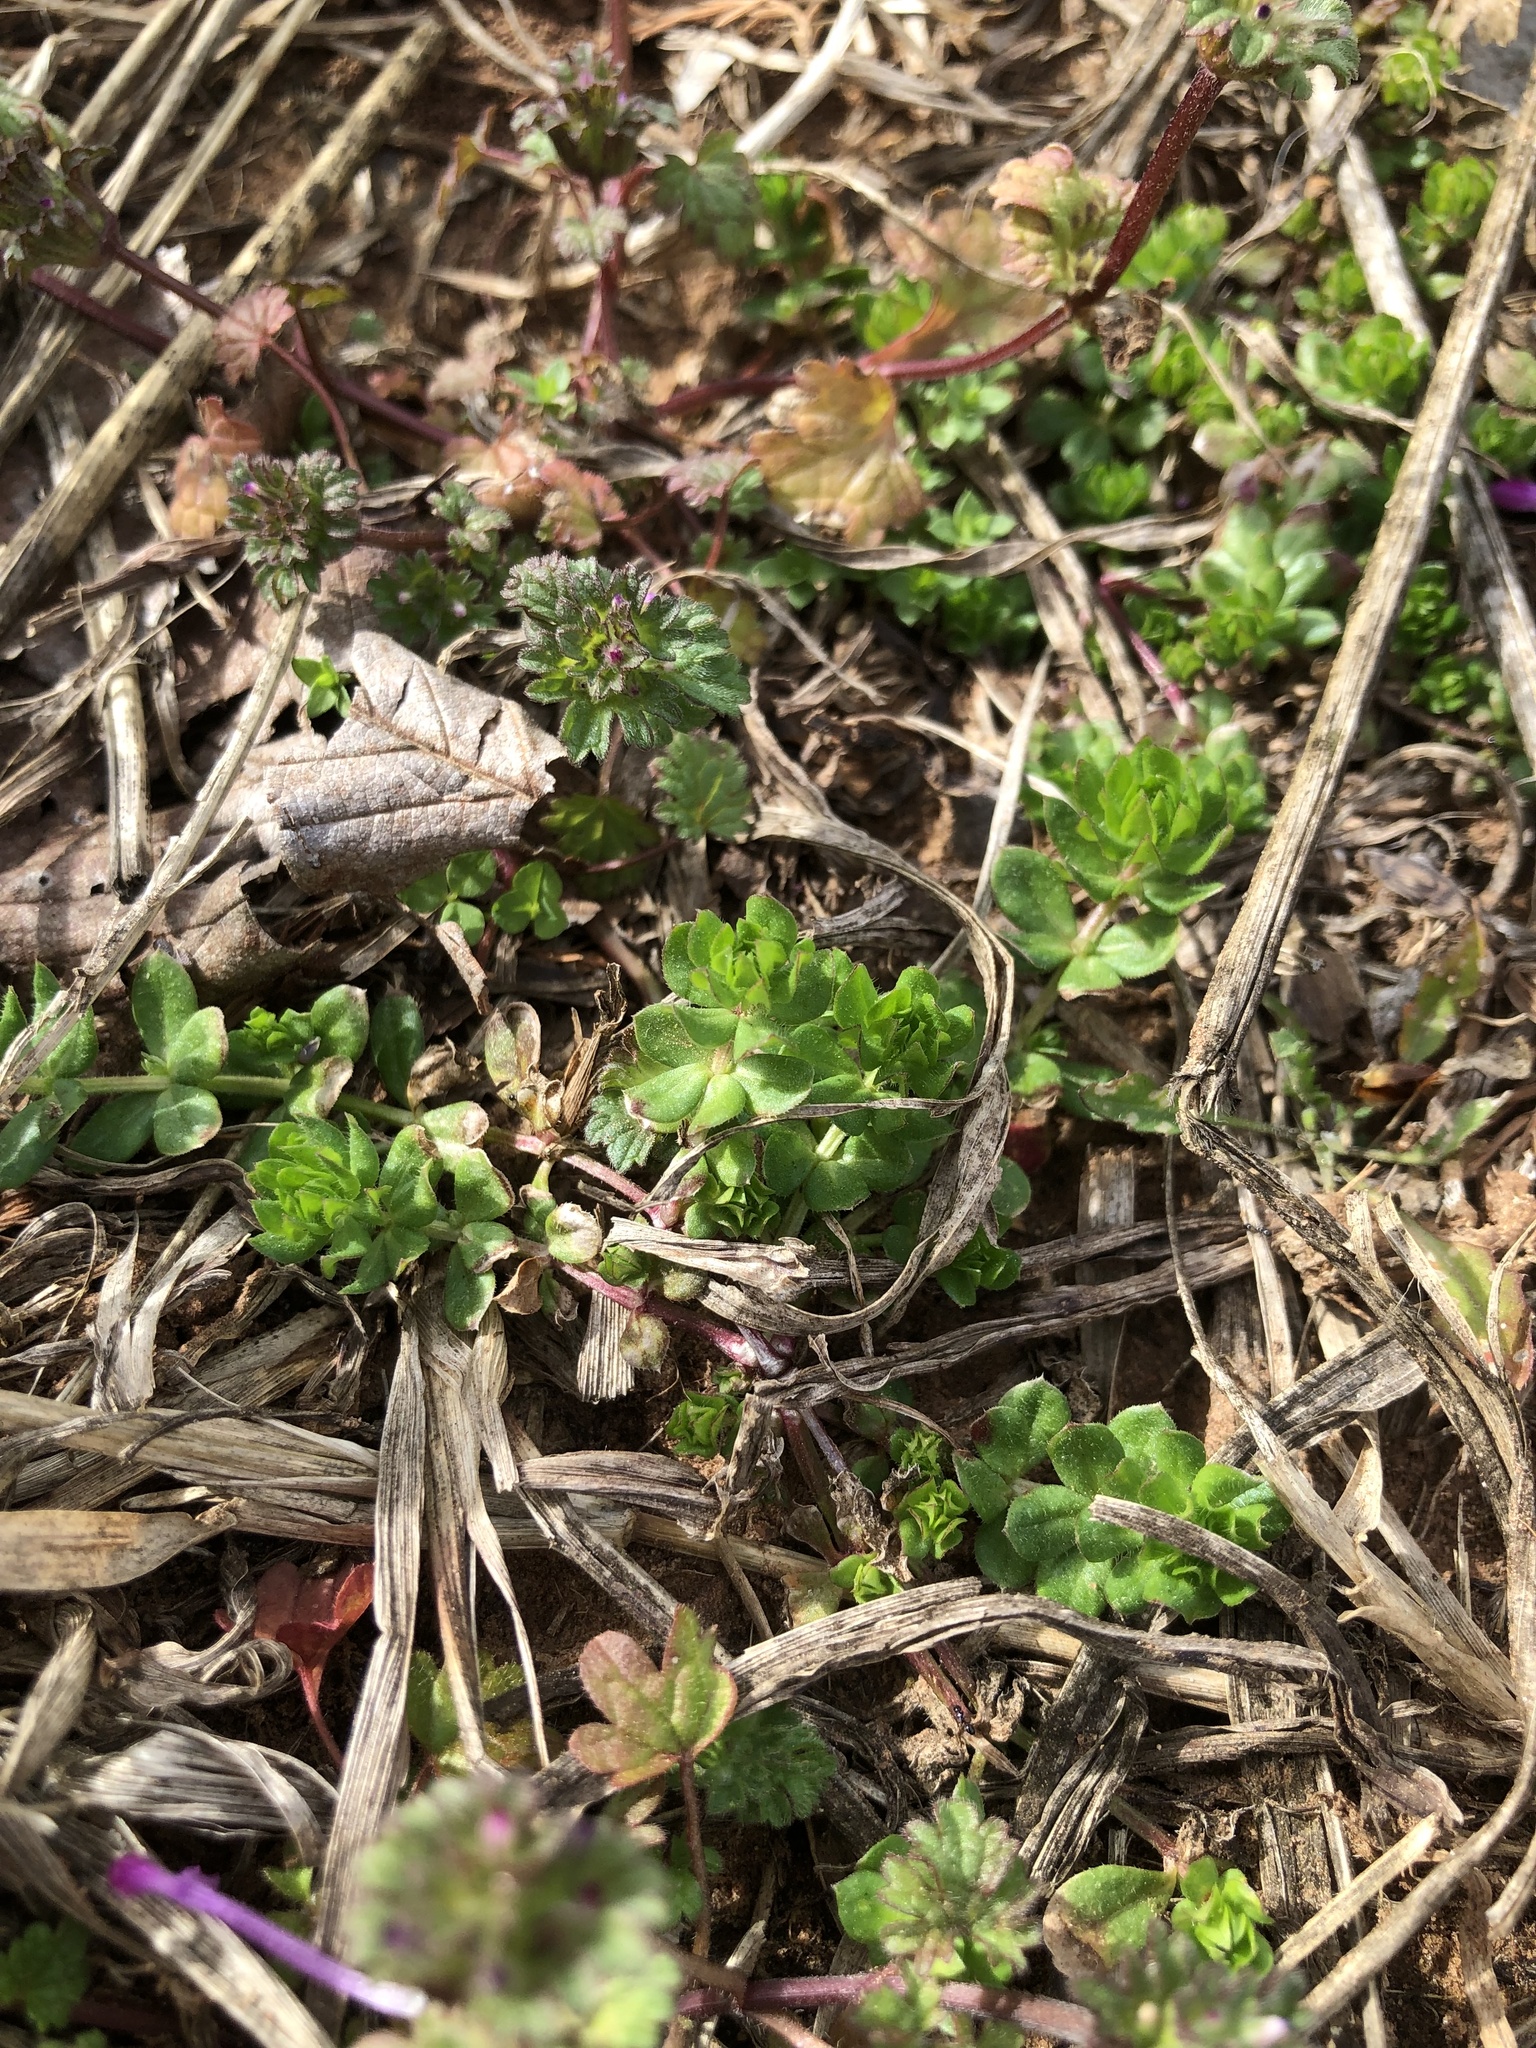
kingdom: Plantae
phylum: Tracheophyta
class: Magnoliopsida
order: Gentianales
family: Rubiaceae
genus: Sherardia
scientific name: Sherardia arvensis
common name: Field madder
